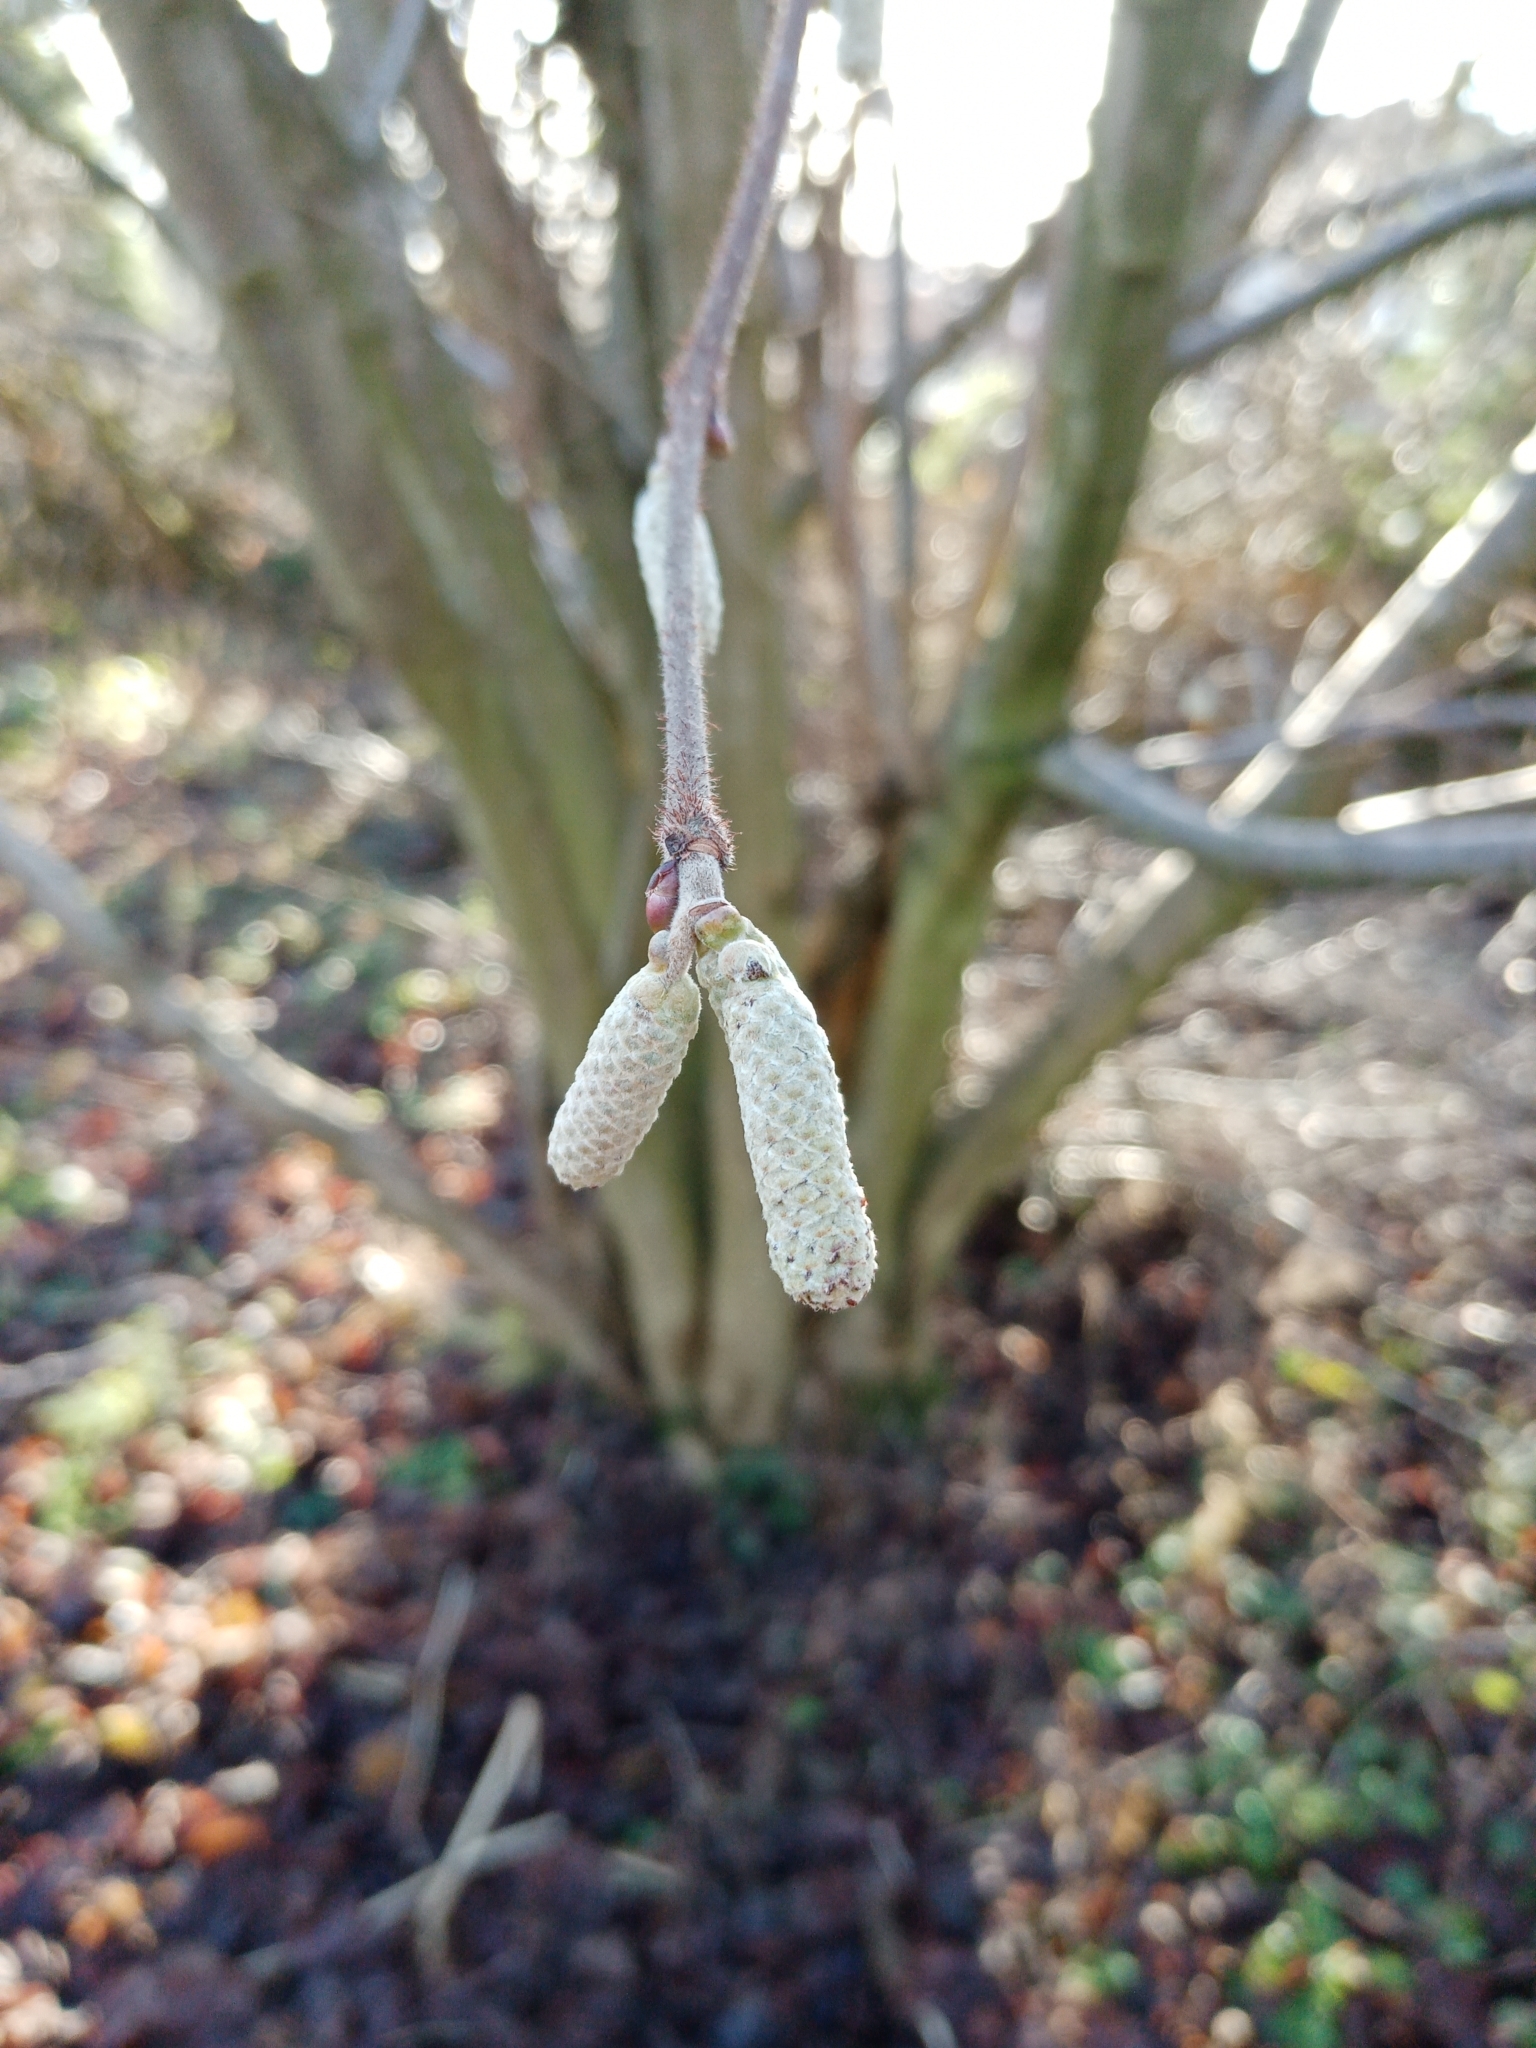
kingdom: Plantae
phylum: Tracheophyta
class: Magnoliopsida
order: Fagales
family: Betulaceae
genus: Corylus
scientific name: Corylus avellana
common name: European hazel
